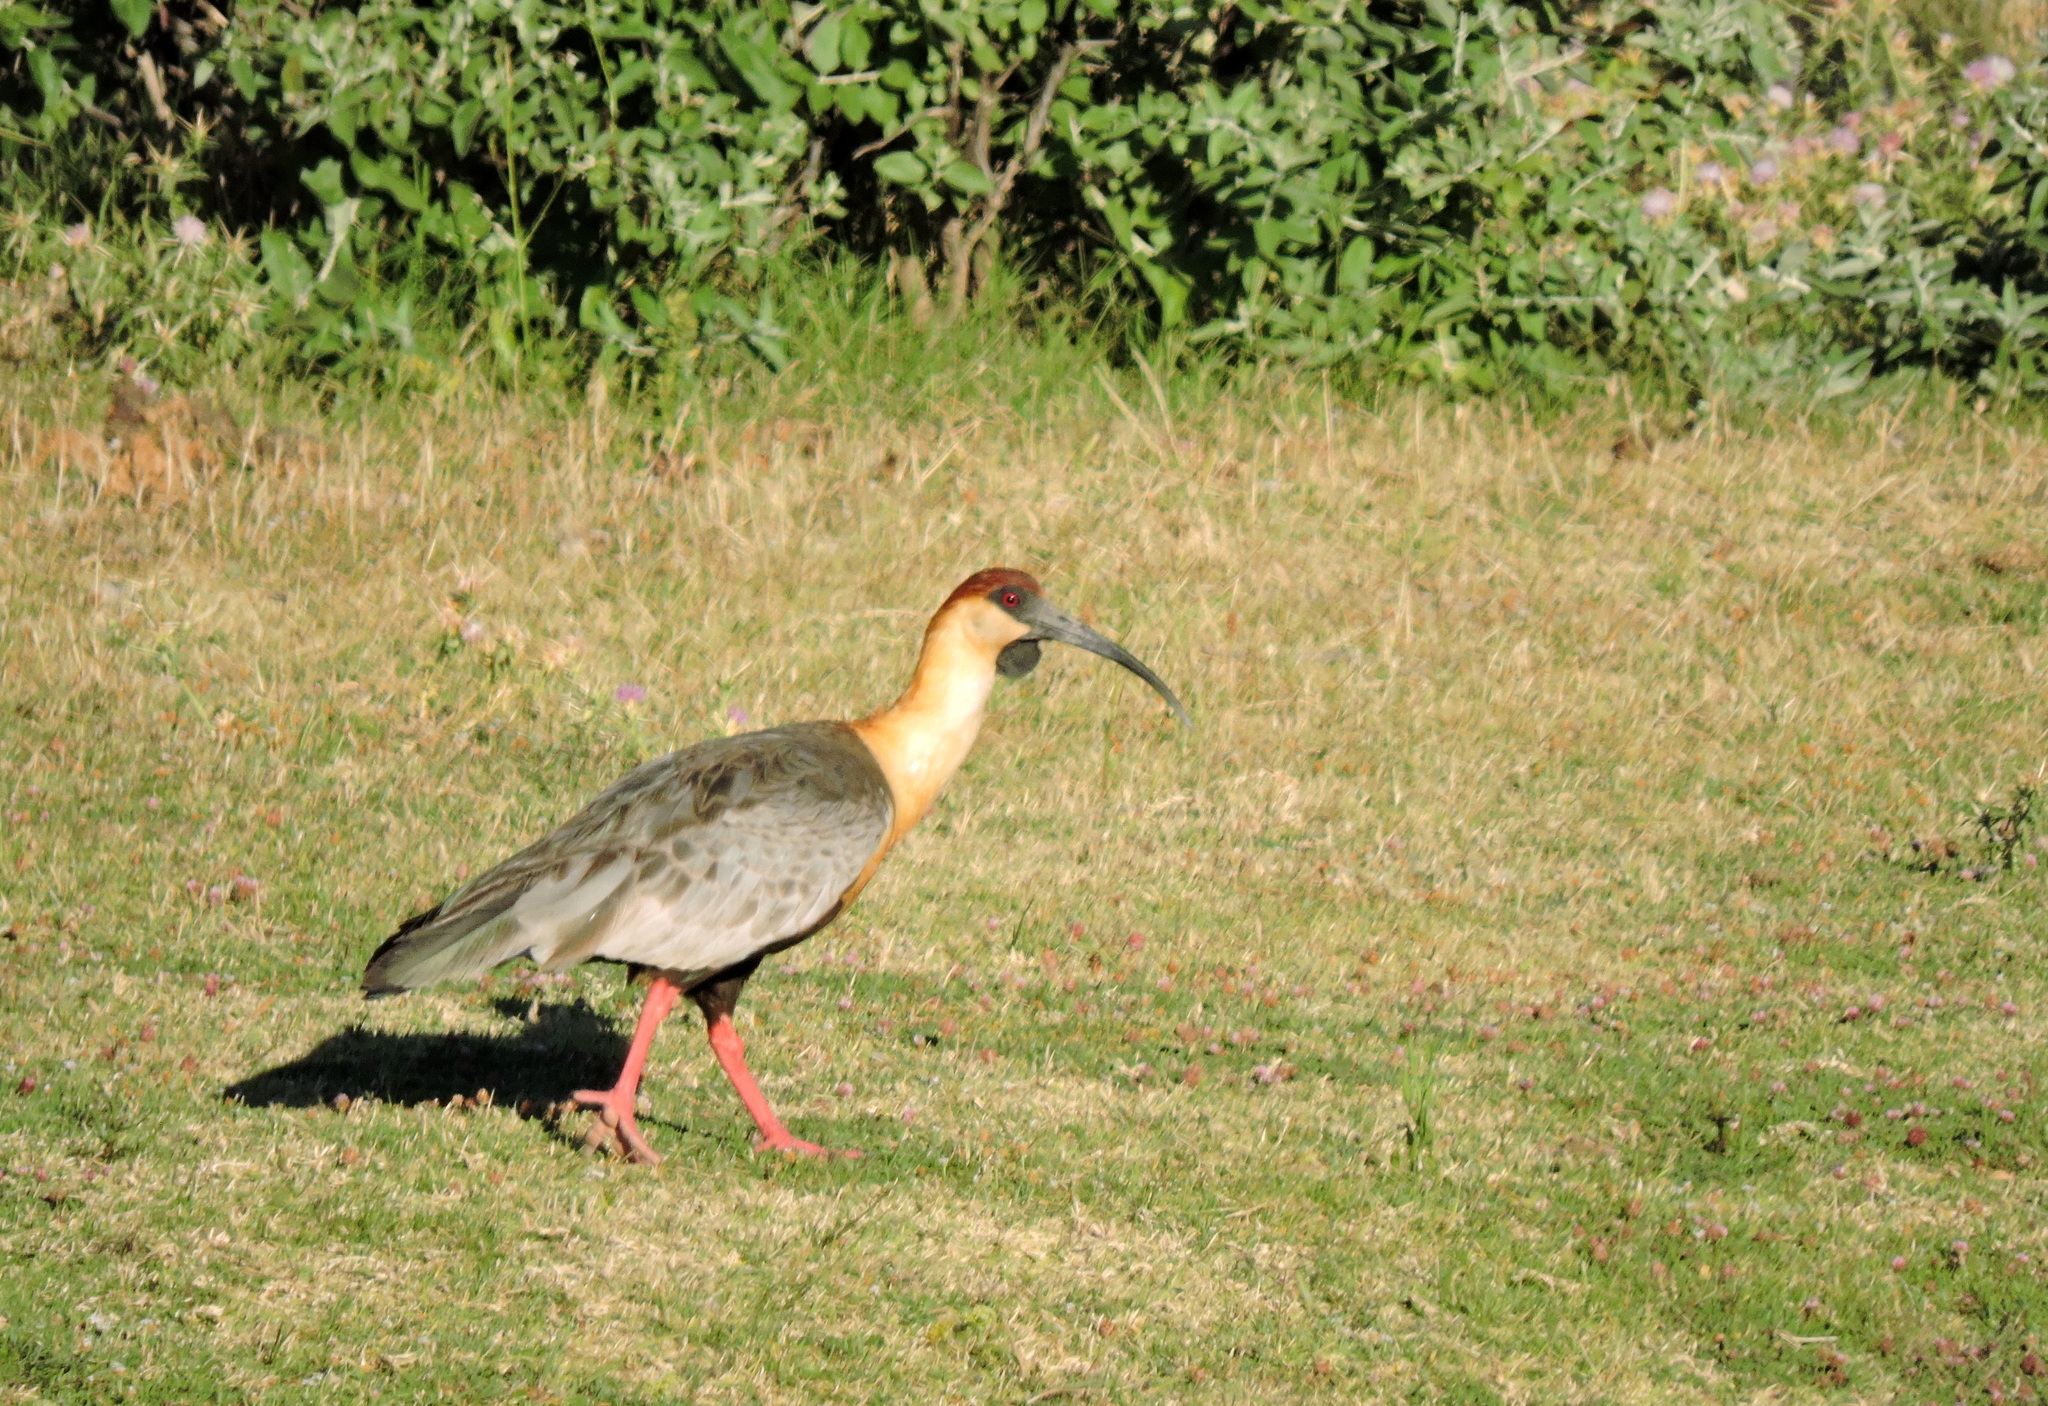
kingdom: Animalia
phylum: Chordata
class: Aves
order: Pelecaniformes
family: Threskiornithidae
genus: Theristicus
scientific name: Theristicus melanopis
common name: Black-faced ibis
